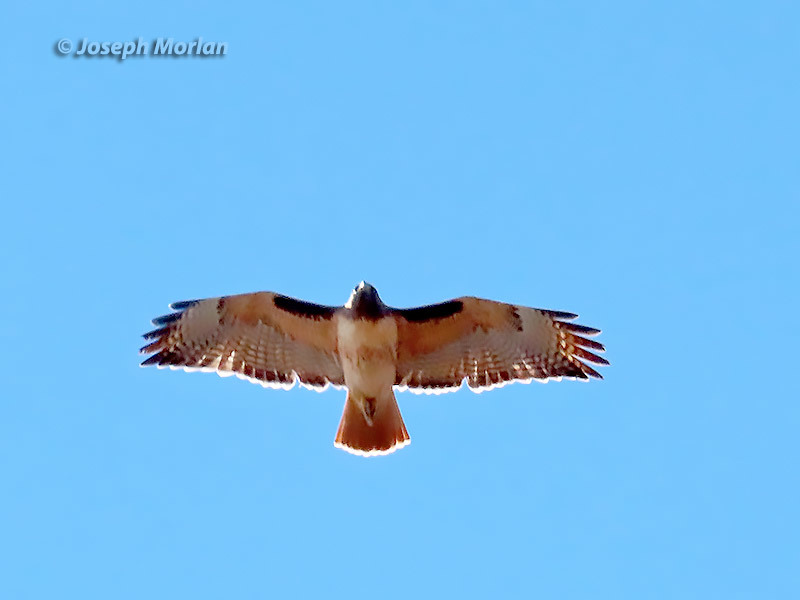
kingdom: Animalia
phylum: Chordata
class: Aves
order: Accipitriformes
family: Accipitridae
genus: Buteo
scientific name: Buteo jamaicensis
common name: Red-tailed hawk
